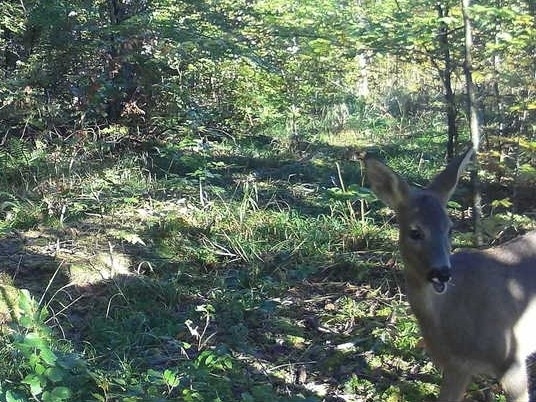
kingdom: Animalia
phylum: Chordata
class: Mammalia
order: Artiodactyla
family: Cervidae
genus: Capreolus
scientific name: Capreolus capreolus
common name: Western roe deer
